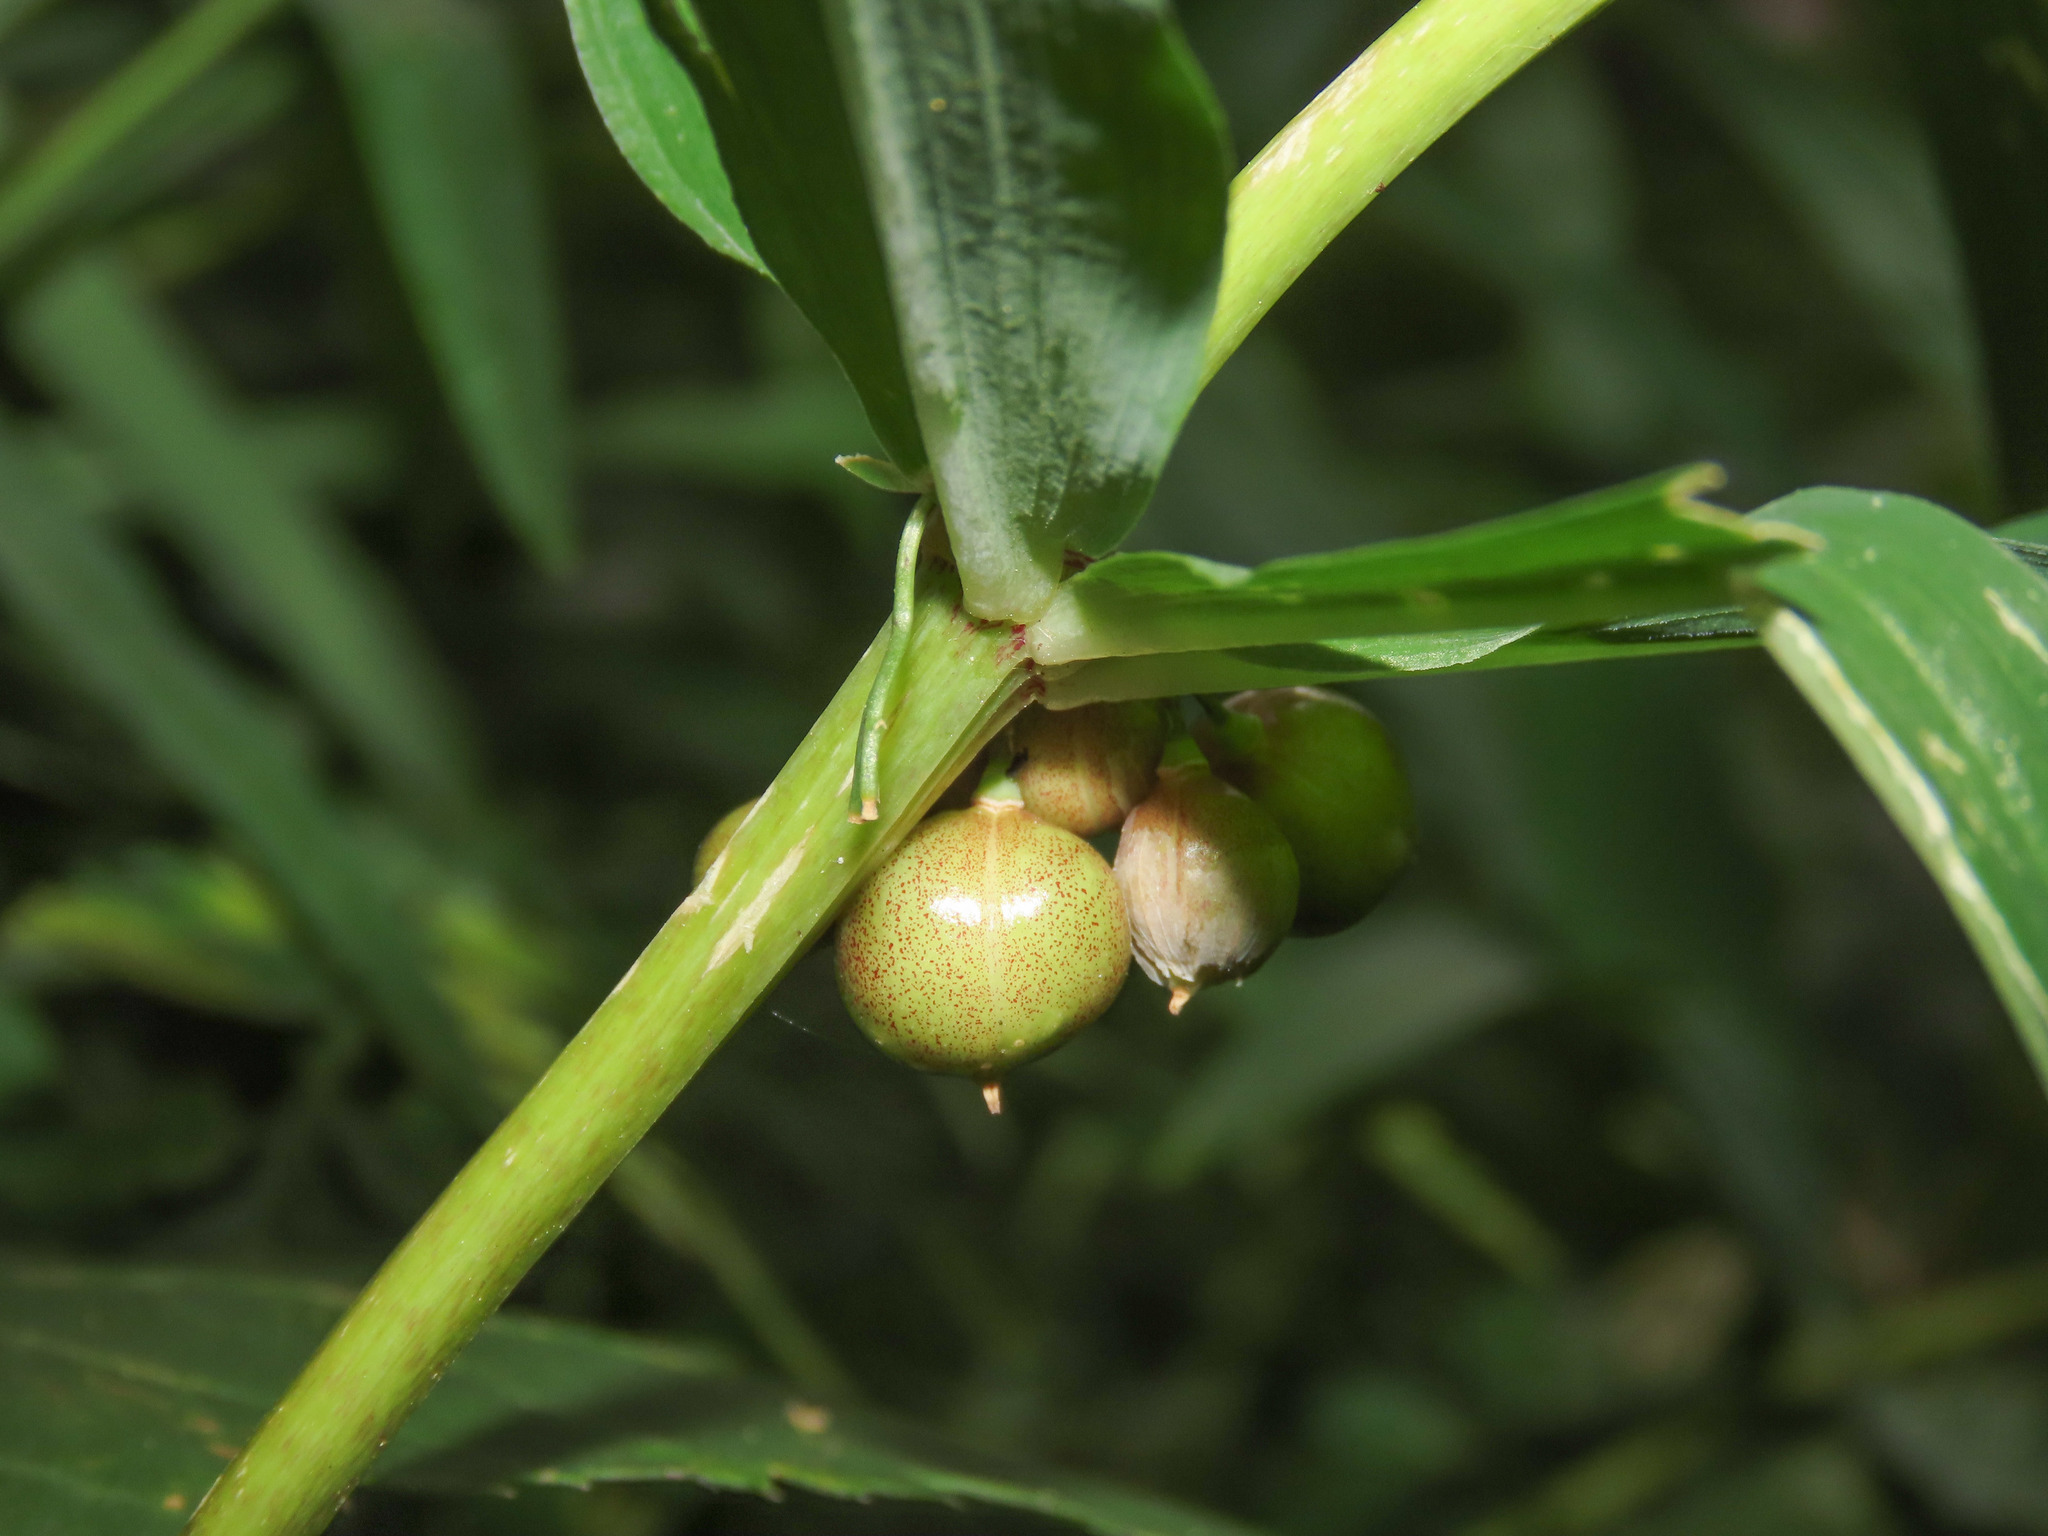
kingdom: Plantae
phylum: Tracheophyta
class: Liliopsida
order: Asparagales
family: Asparagaceae
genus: Polygonatum
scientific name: Polygonatum verticillatum
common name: Whorled solomon's-seal
